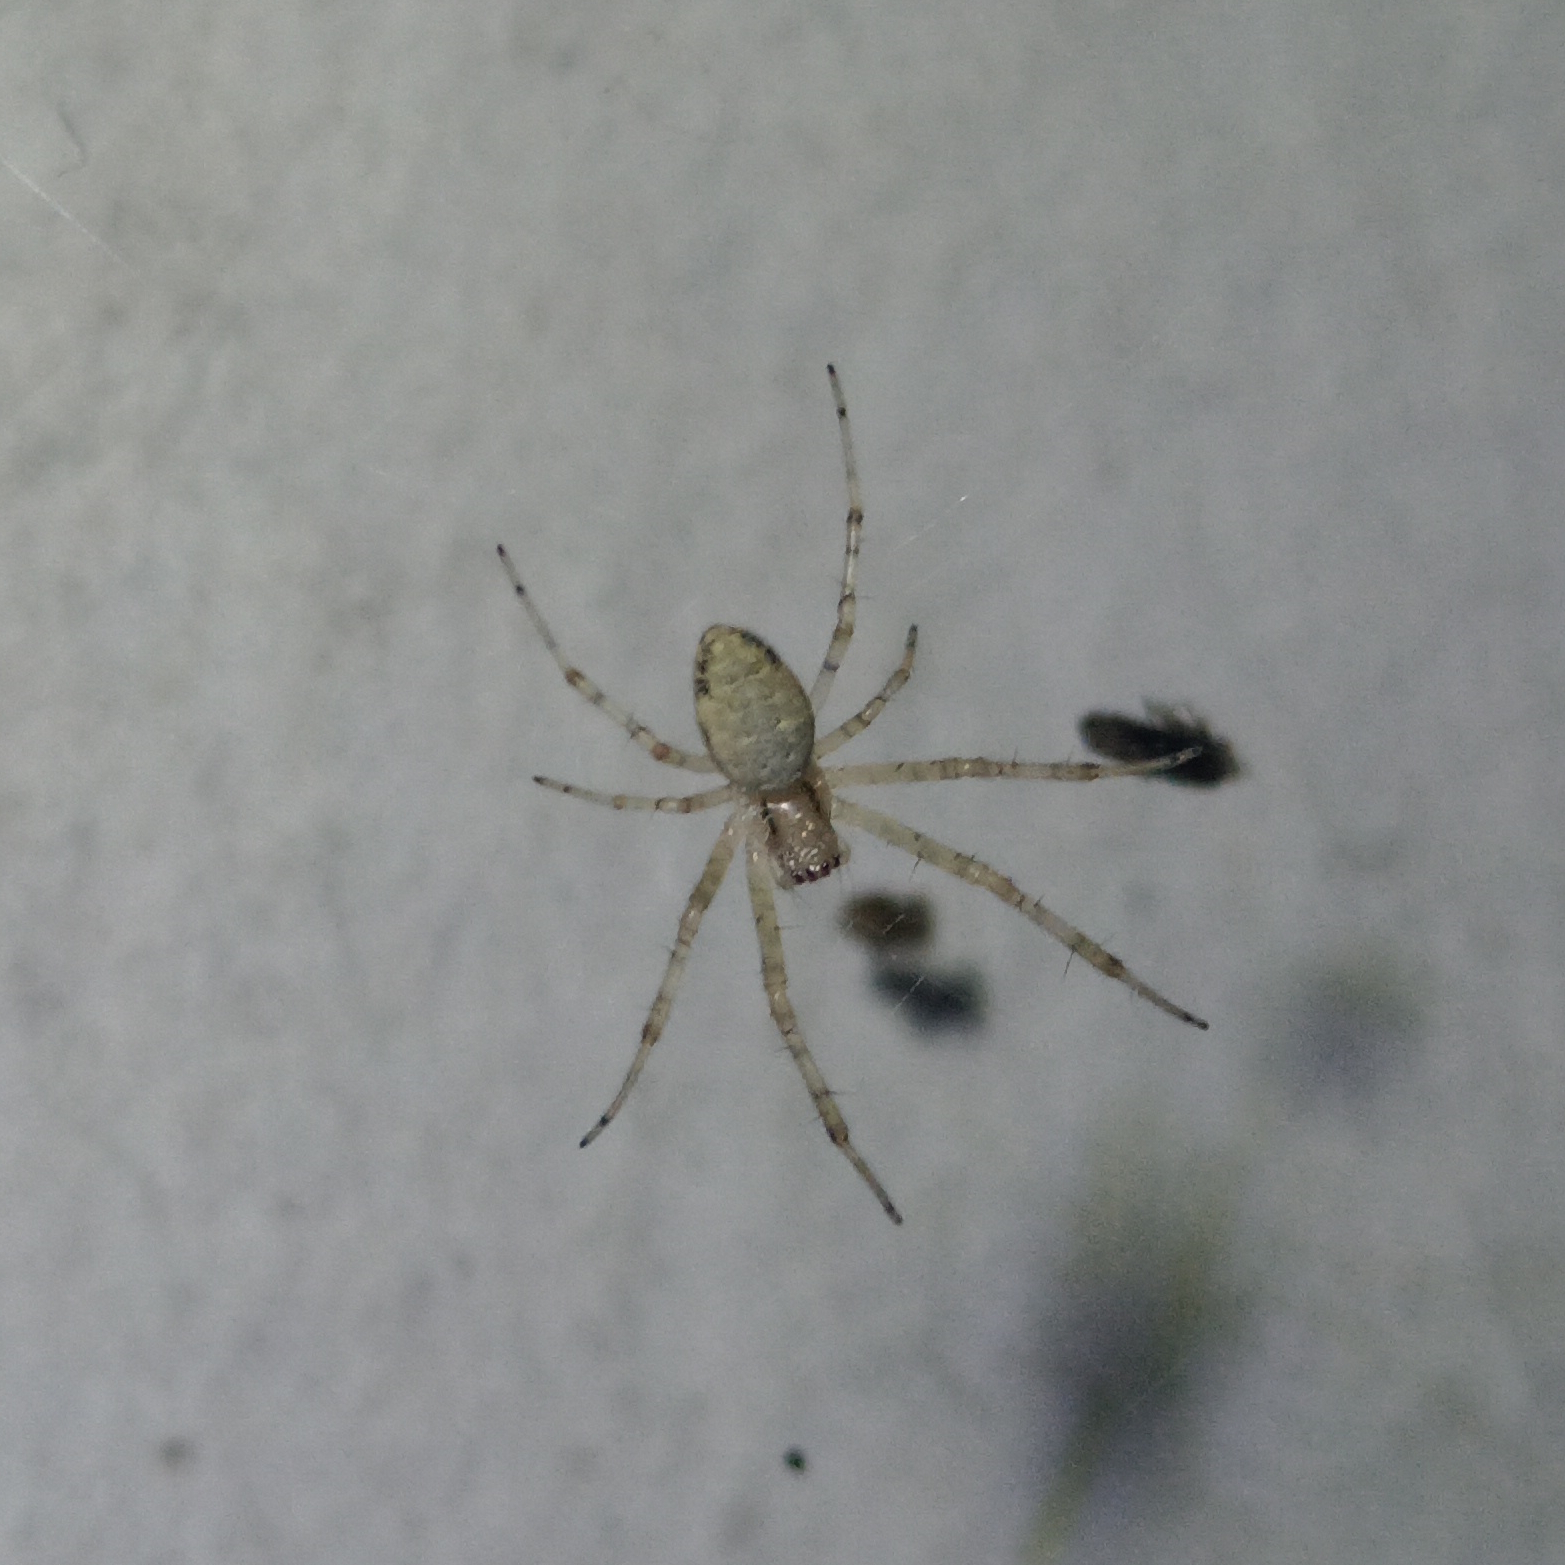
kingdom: Animalia
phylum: Arthropoda
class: Arachnida
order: Araneae
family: Araneidae
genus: Nephilingis
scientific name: Nephilingis cruentata
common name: African hermit spider
